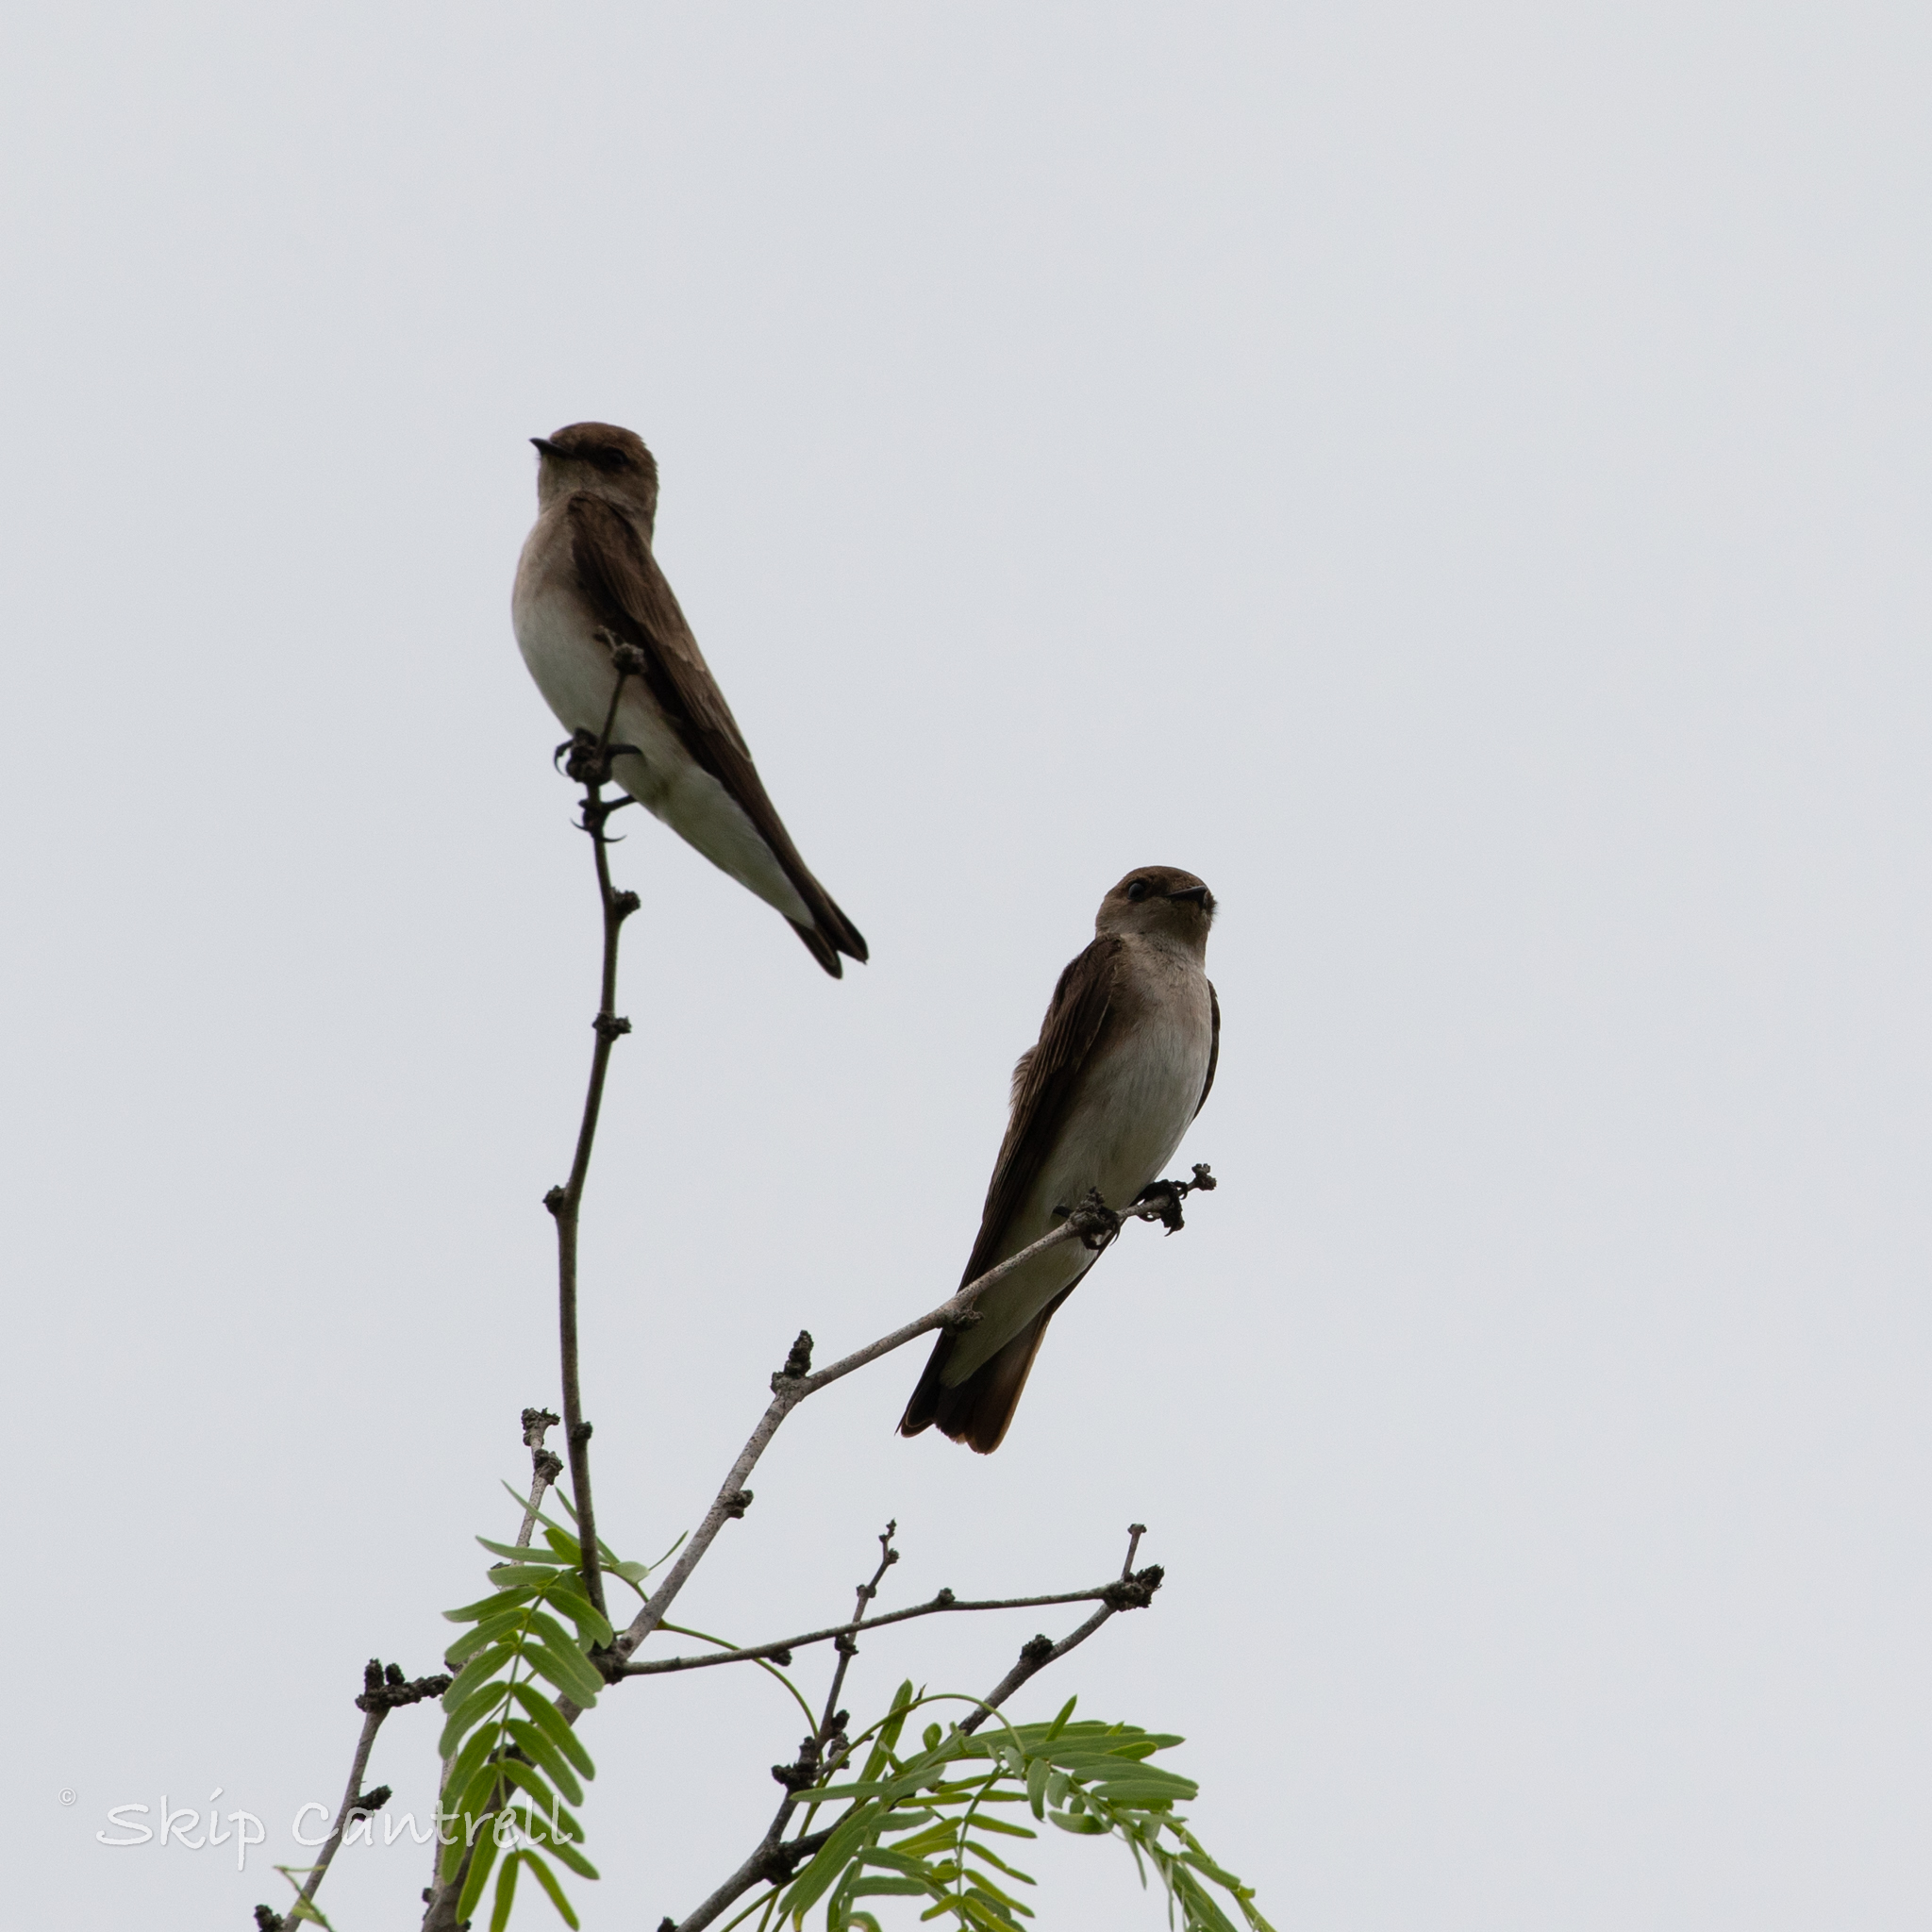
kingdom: Animalia
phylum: Chordata
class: Aves
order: Passeriformes
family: Hirundinidae
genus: Stelgidopteryx
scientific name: Stelgidopteryx serripennis
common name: Northern rough-winged swallow
